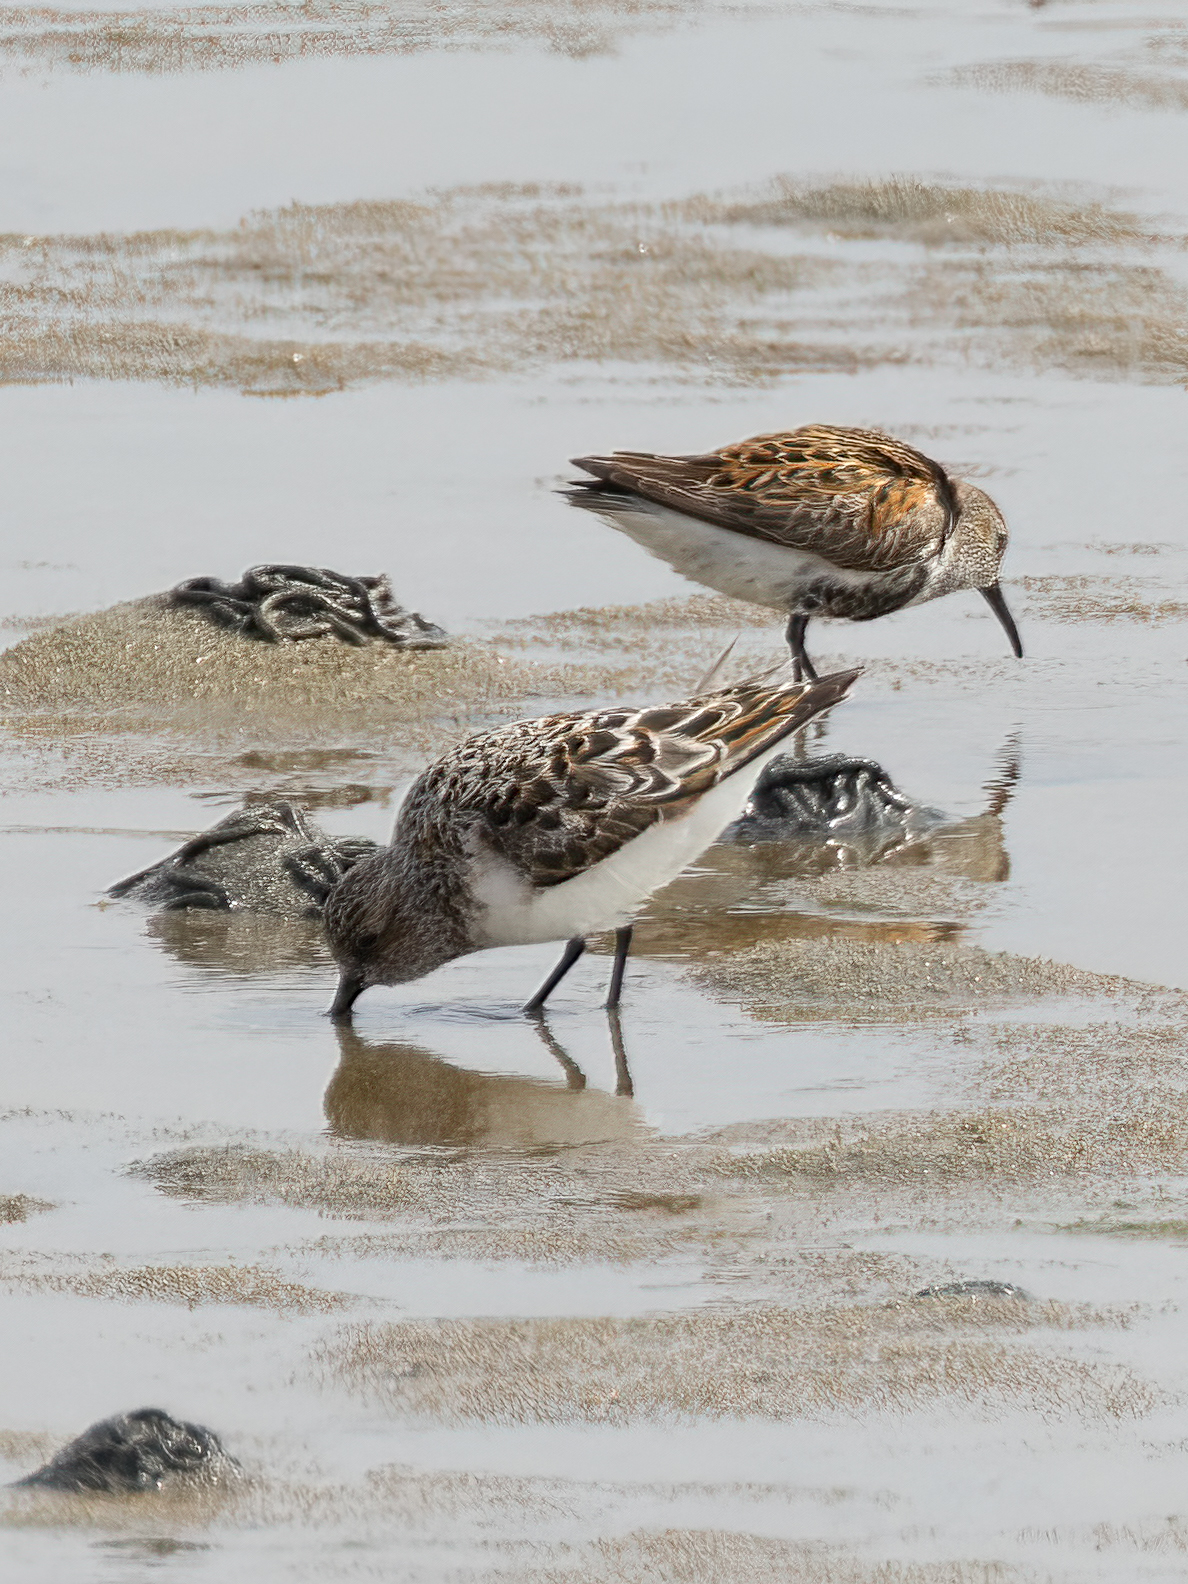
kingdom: Animalia
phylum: Chordata
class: Aves
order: Charadriiformes
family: Scolopacidae
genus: Calidris
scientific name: Calidris alba
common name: Sanderling
